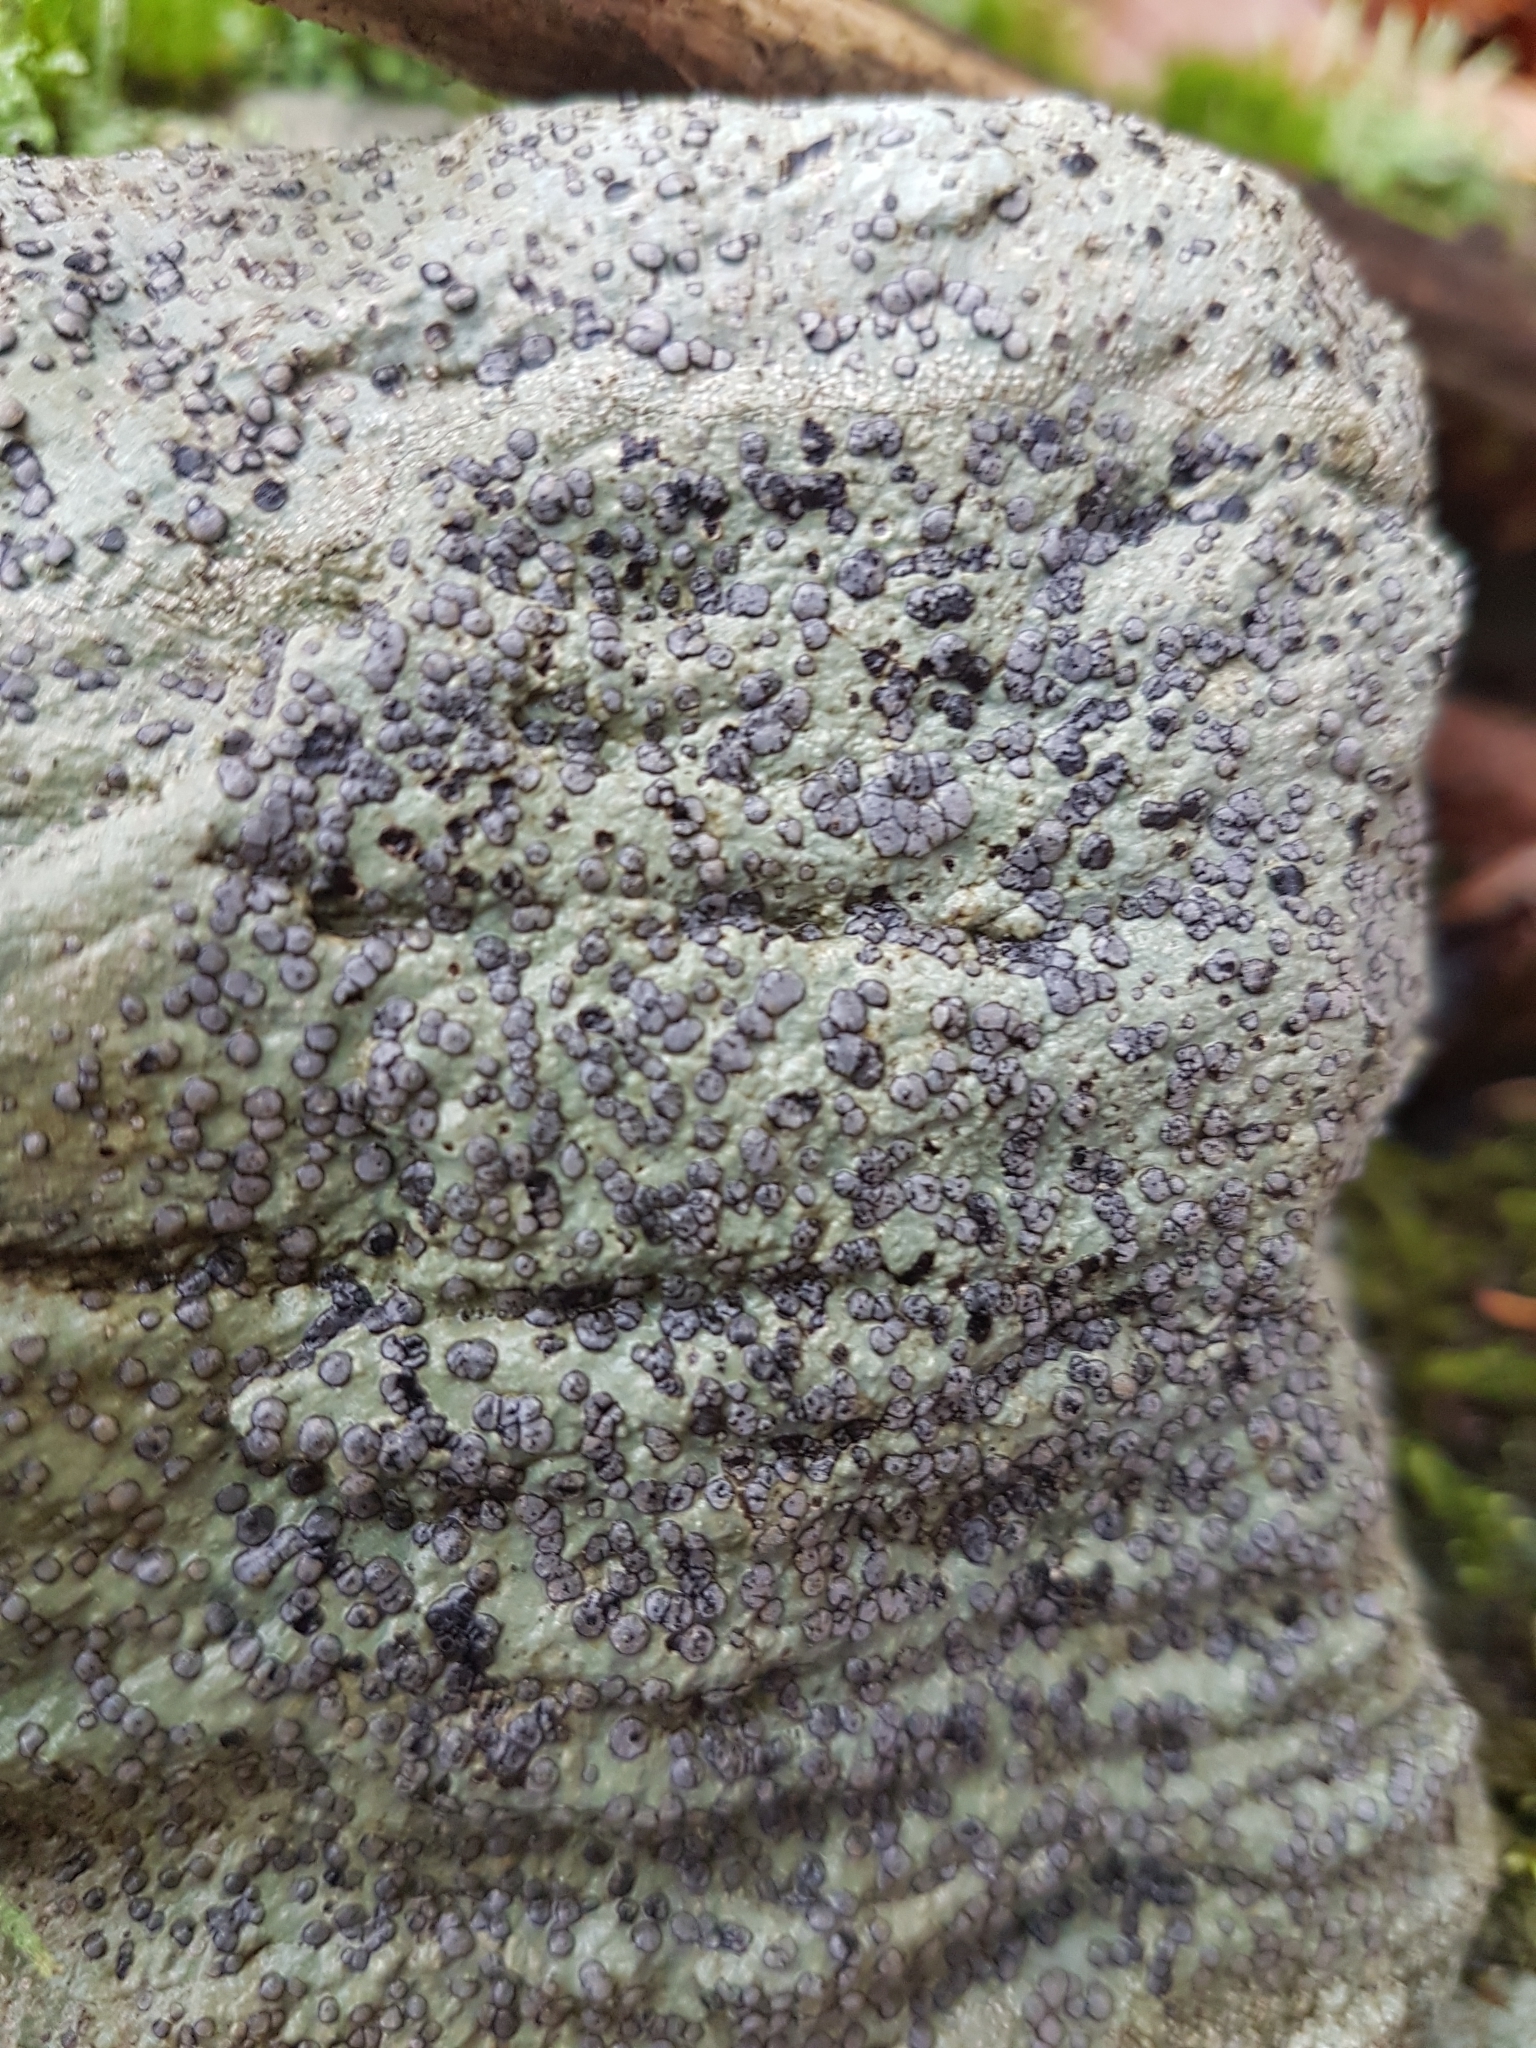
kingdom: Fungi
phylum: Ascomycota
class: Lecanoromycetes
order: Lecideales
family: Lecideaceae
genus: Porpidia
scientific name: Porpidia albocaerulescens
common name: Smokey-eyed boulder lichen
